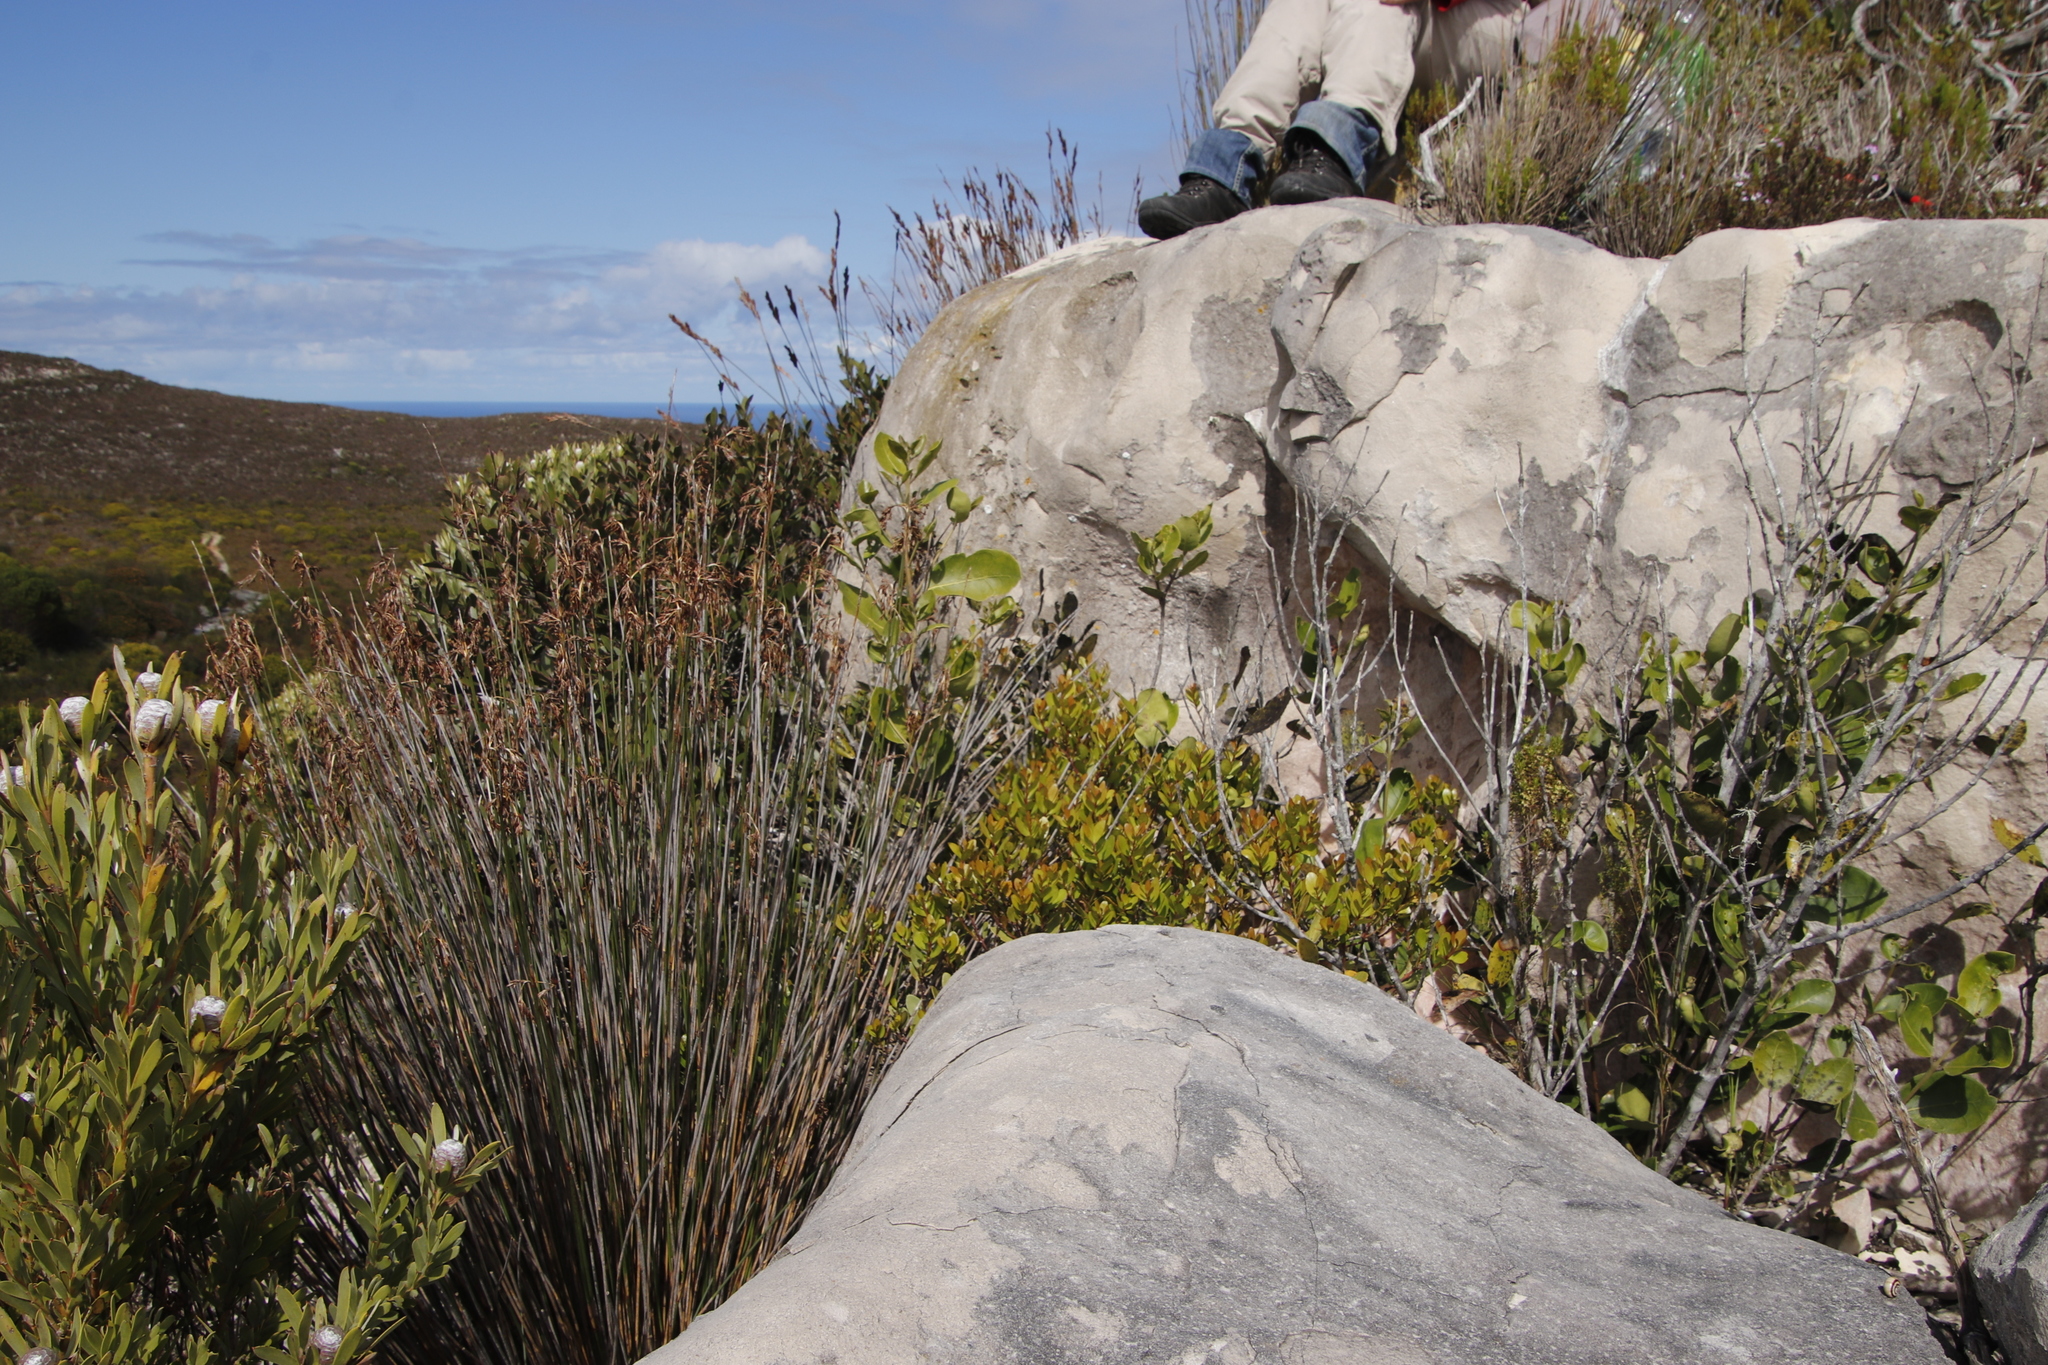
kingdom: Plantae
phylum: Tracheophyta
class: Magnoliopsida
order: Sapindales
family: Anacardiaceae
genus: Searsia
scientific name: Searsia glauca
